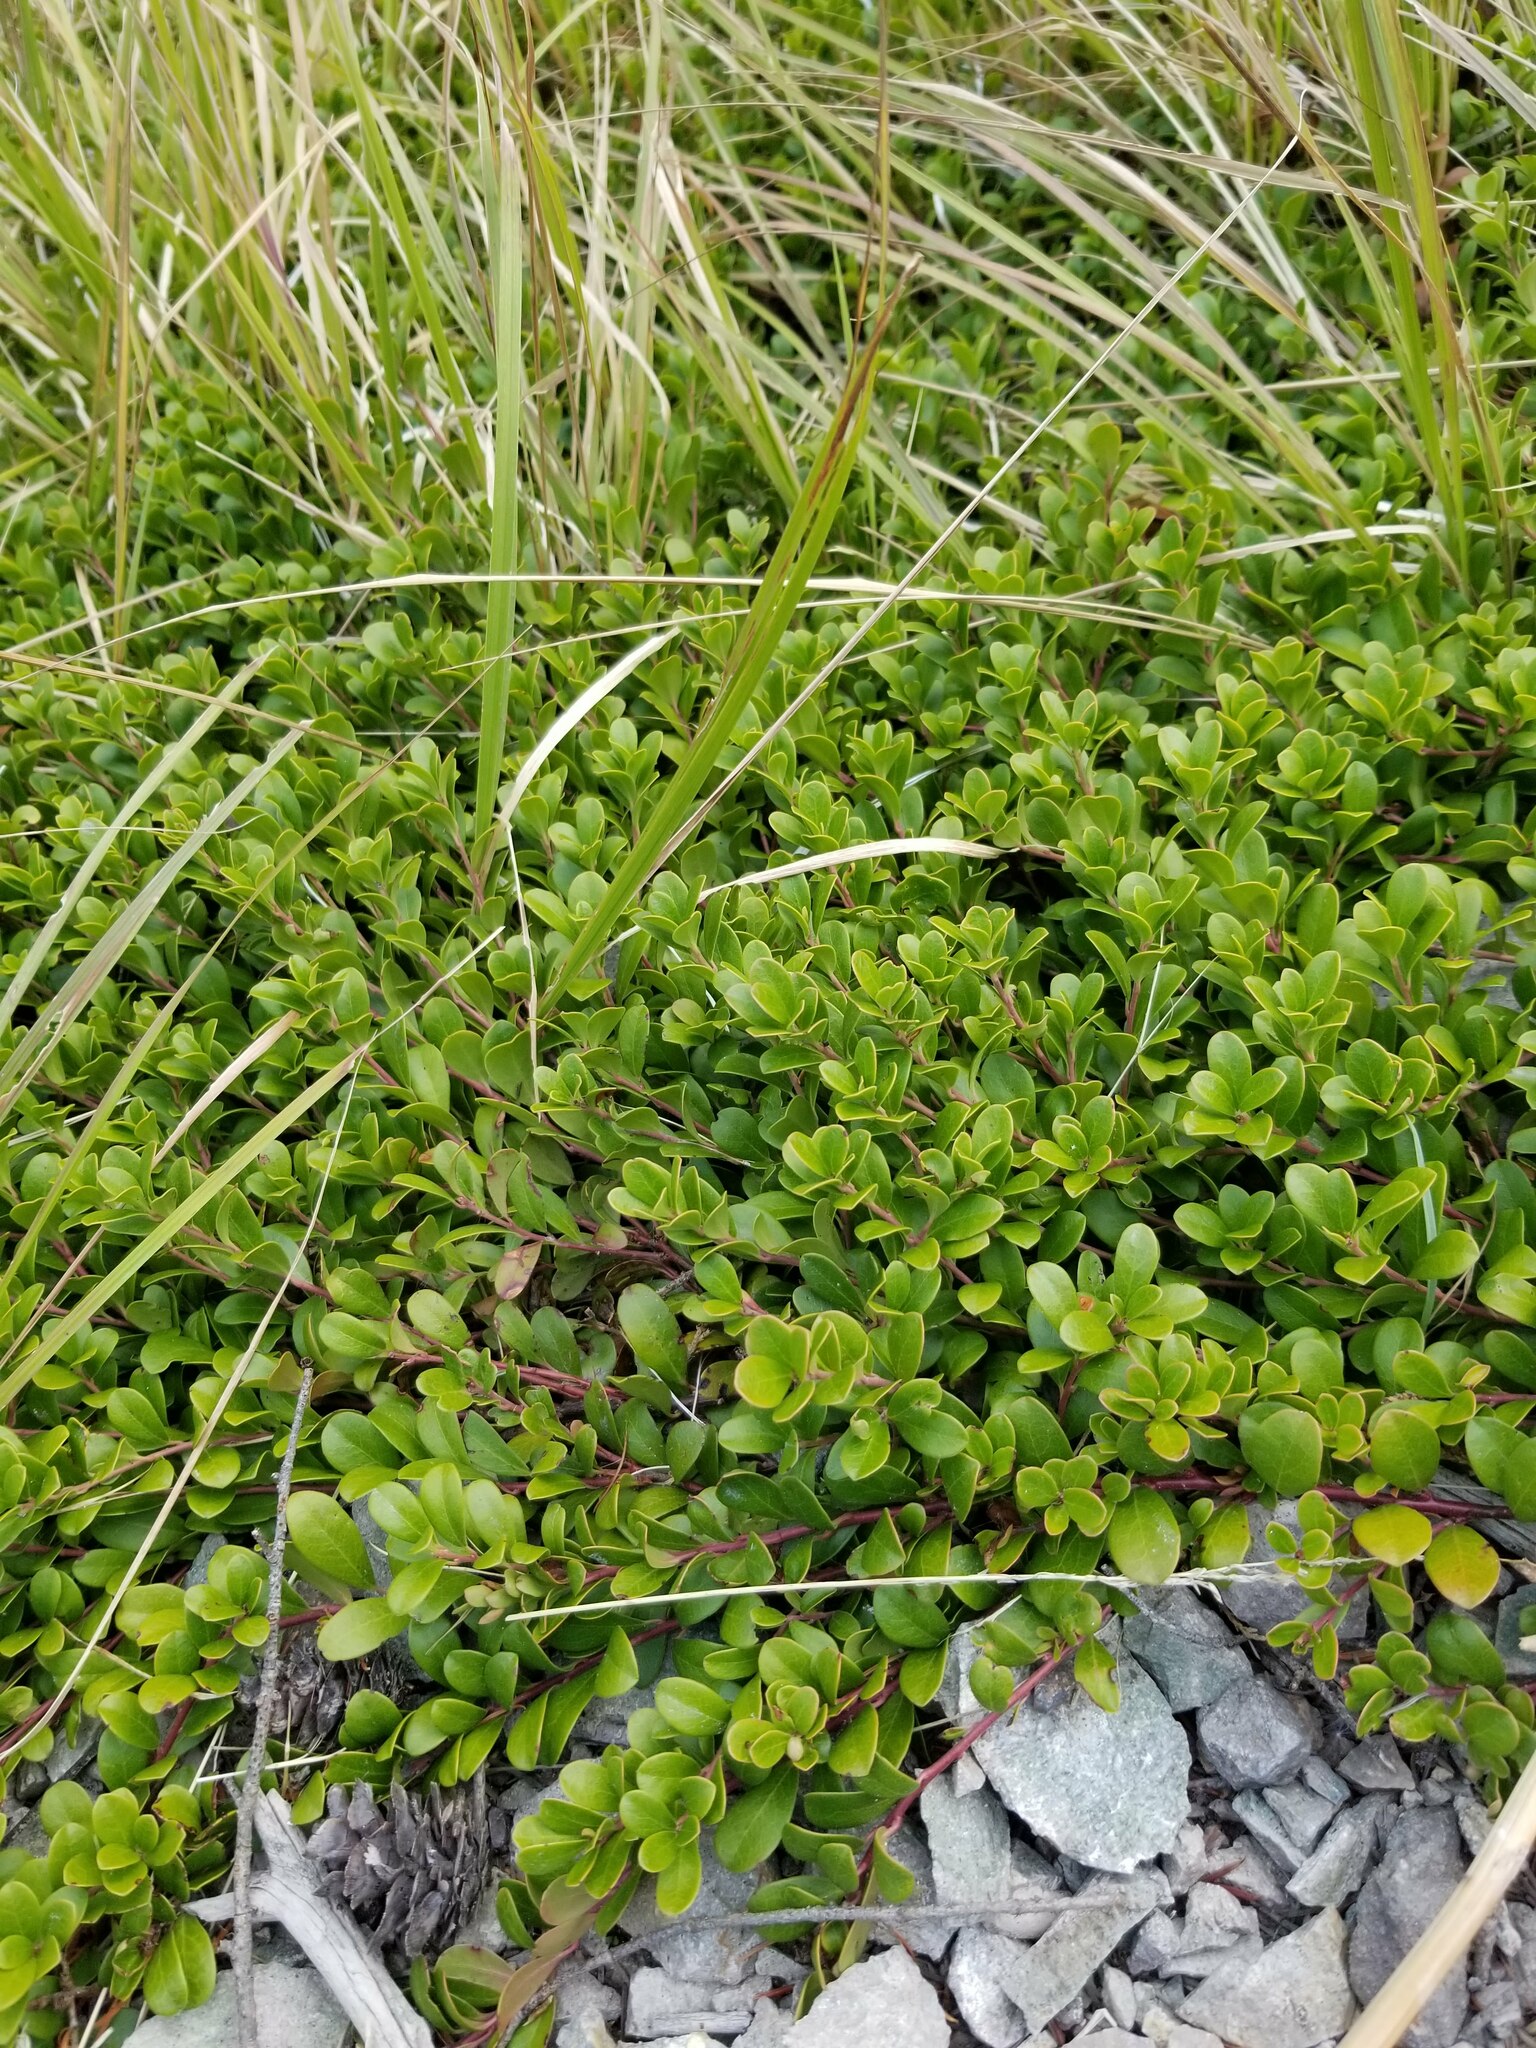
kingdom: Plantae
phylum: Tracheophyta
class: Magnoliopsida
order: Ericales
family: Ericaceae
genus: Arctostaphylos
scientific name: Arctostaphylos uva-ursi
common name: Bearberry
